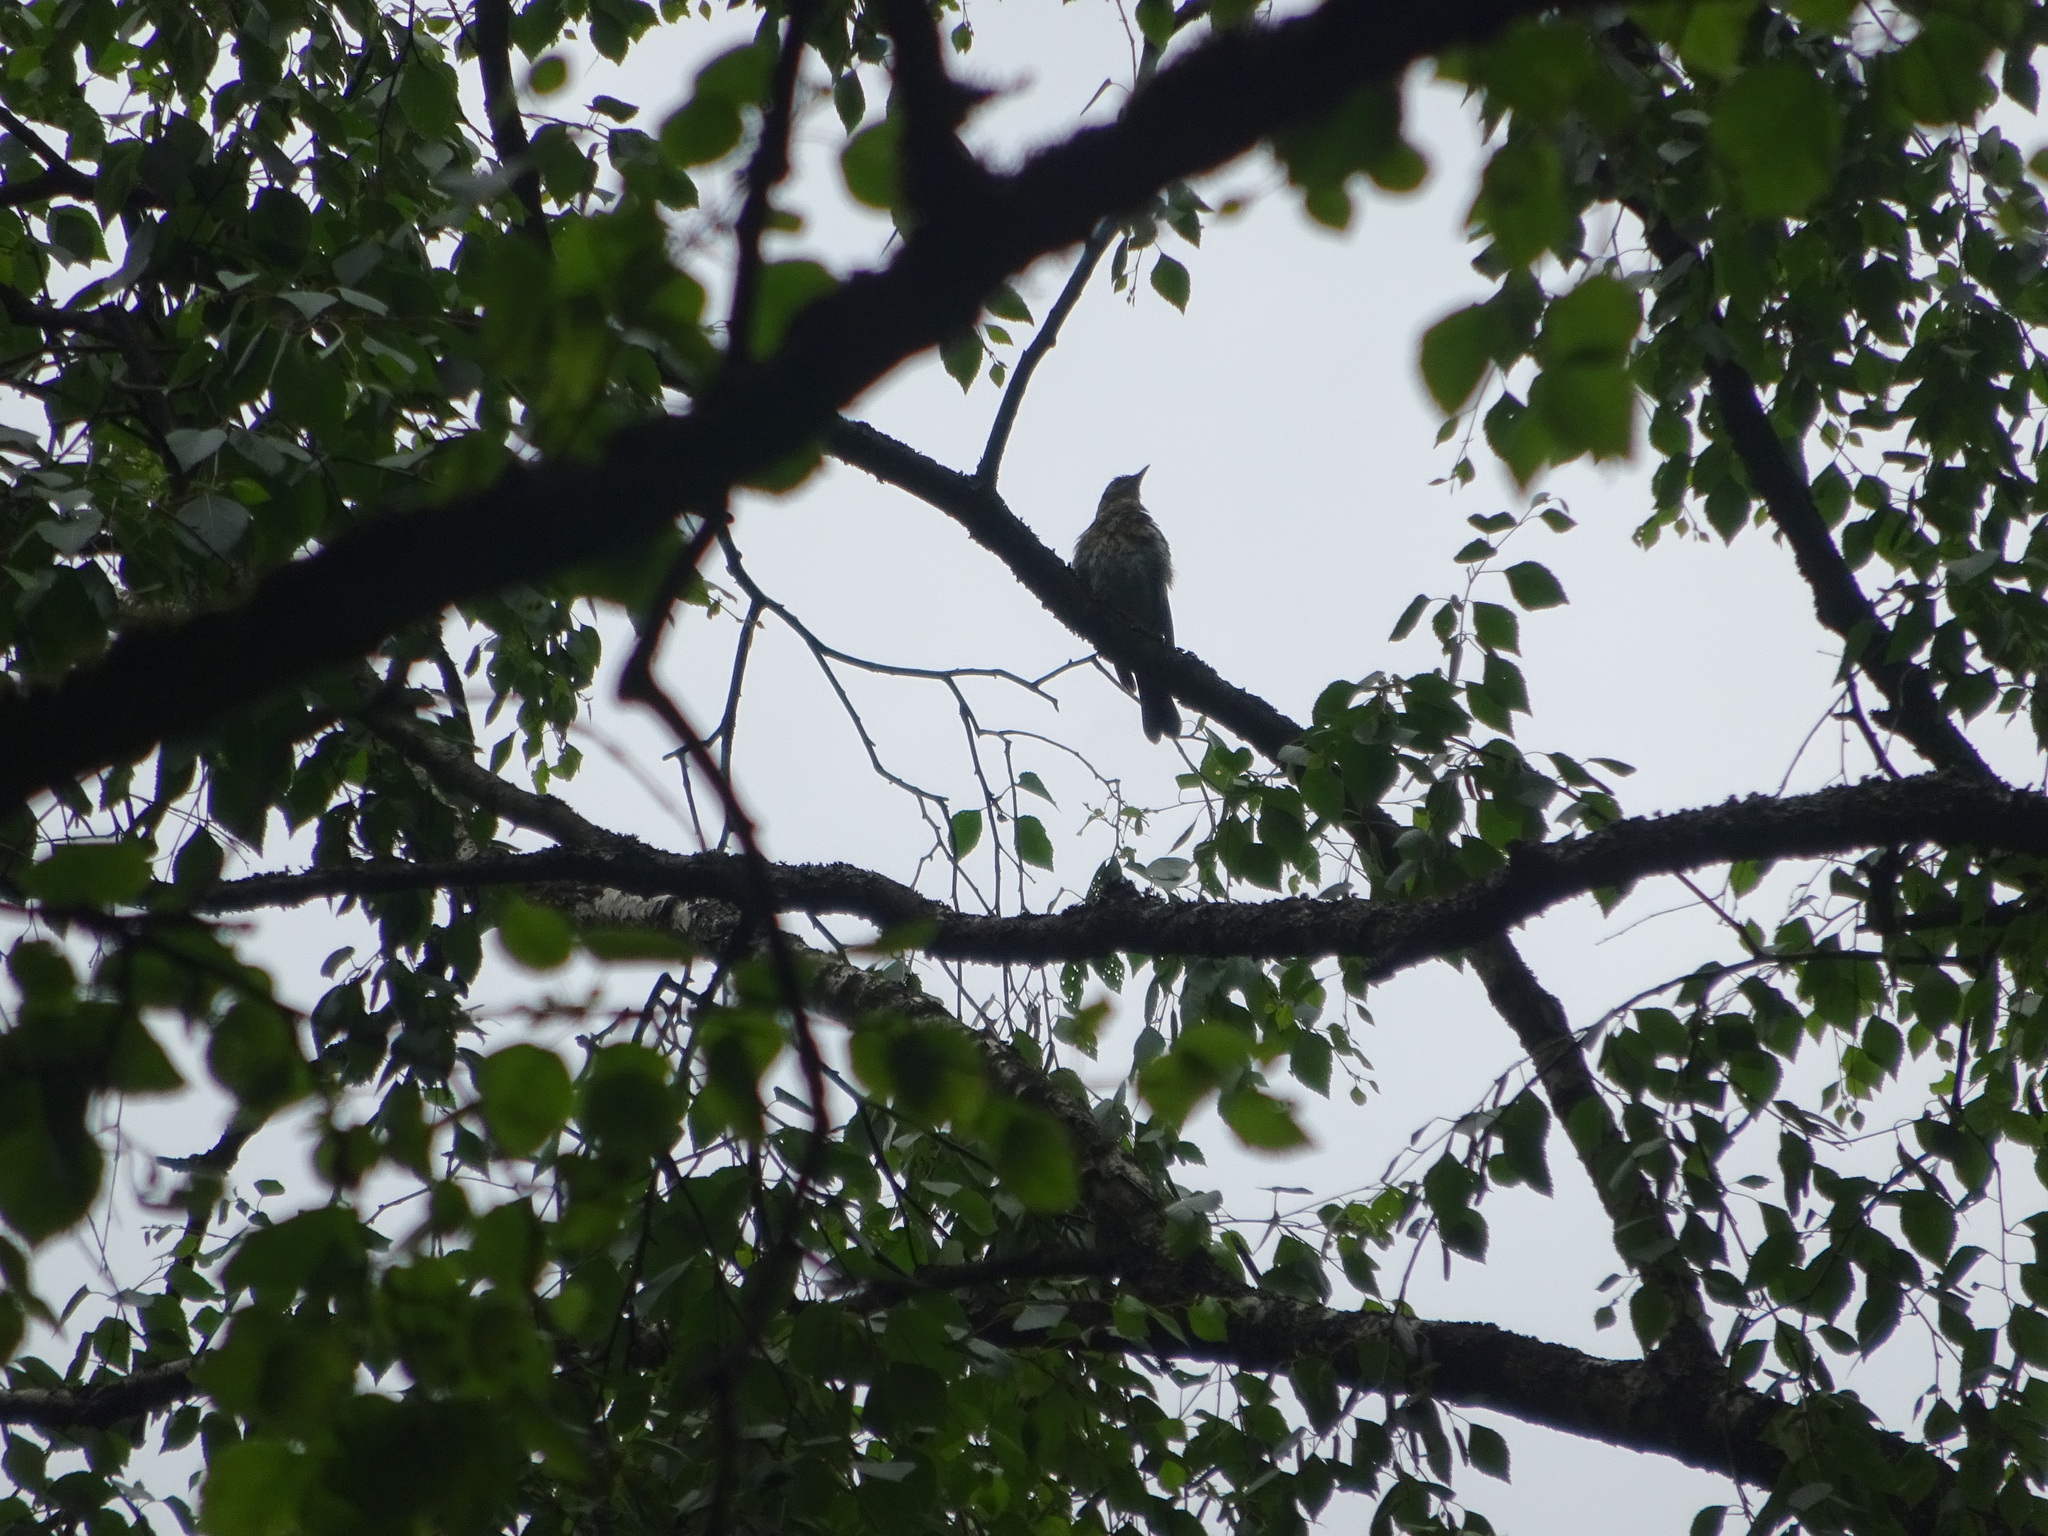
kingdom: Animalia
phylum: Chordata
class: Aves
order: Passeriformes
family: Turdidae
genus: Turdus
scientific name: Turdus pilaris
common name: Fieldfare
